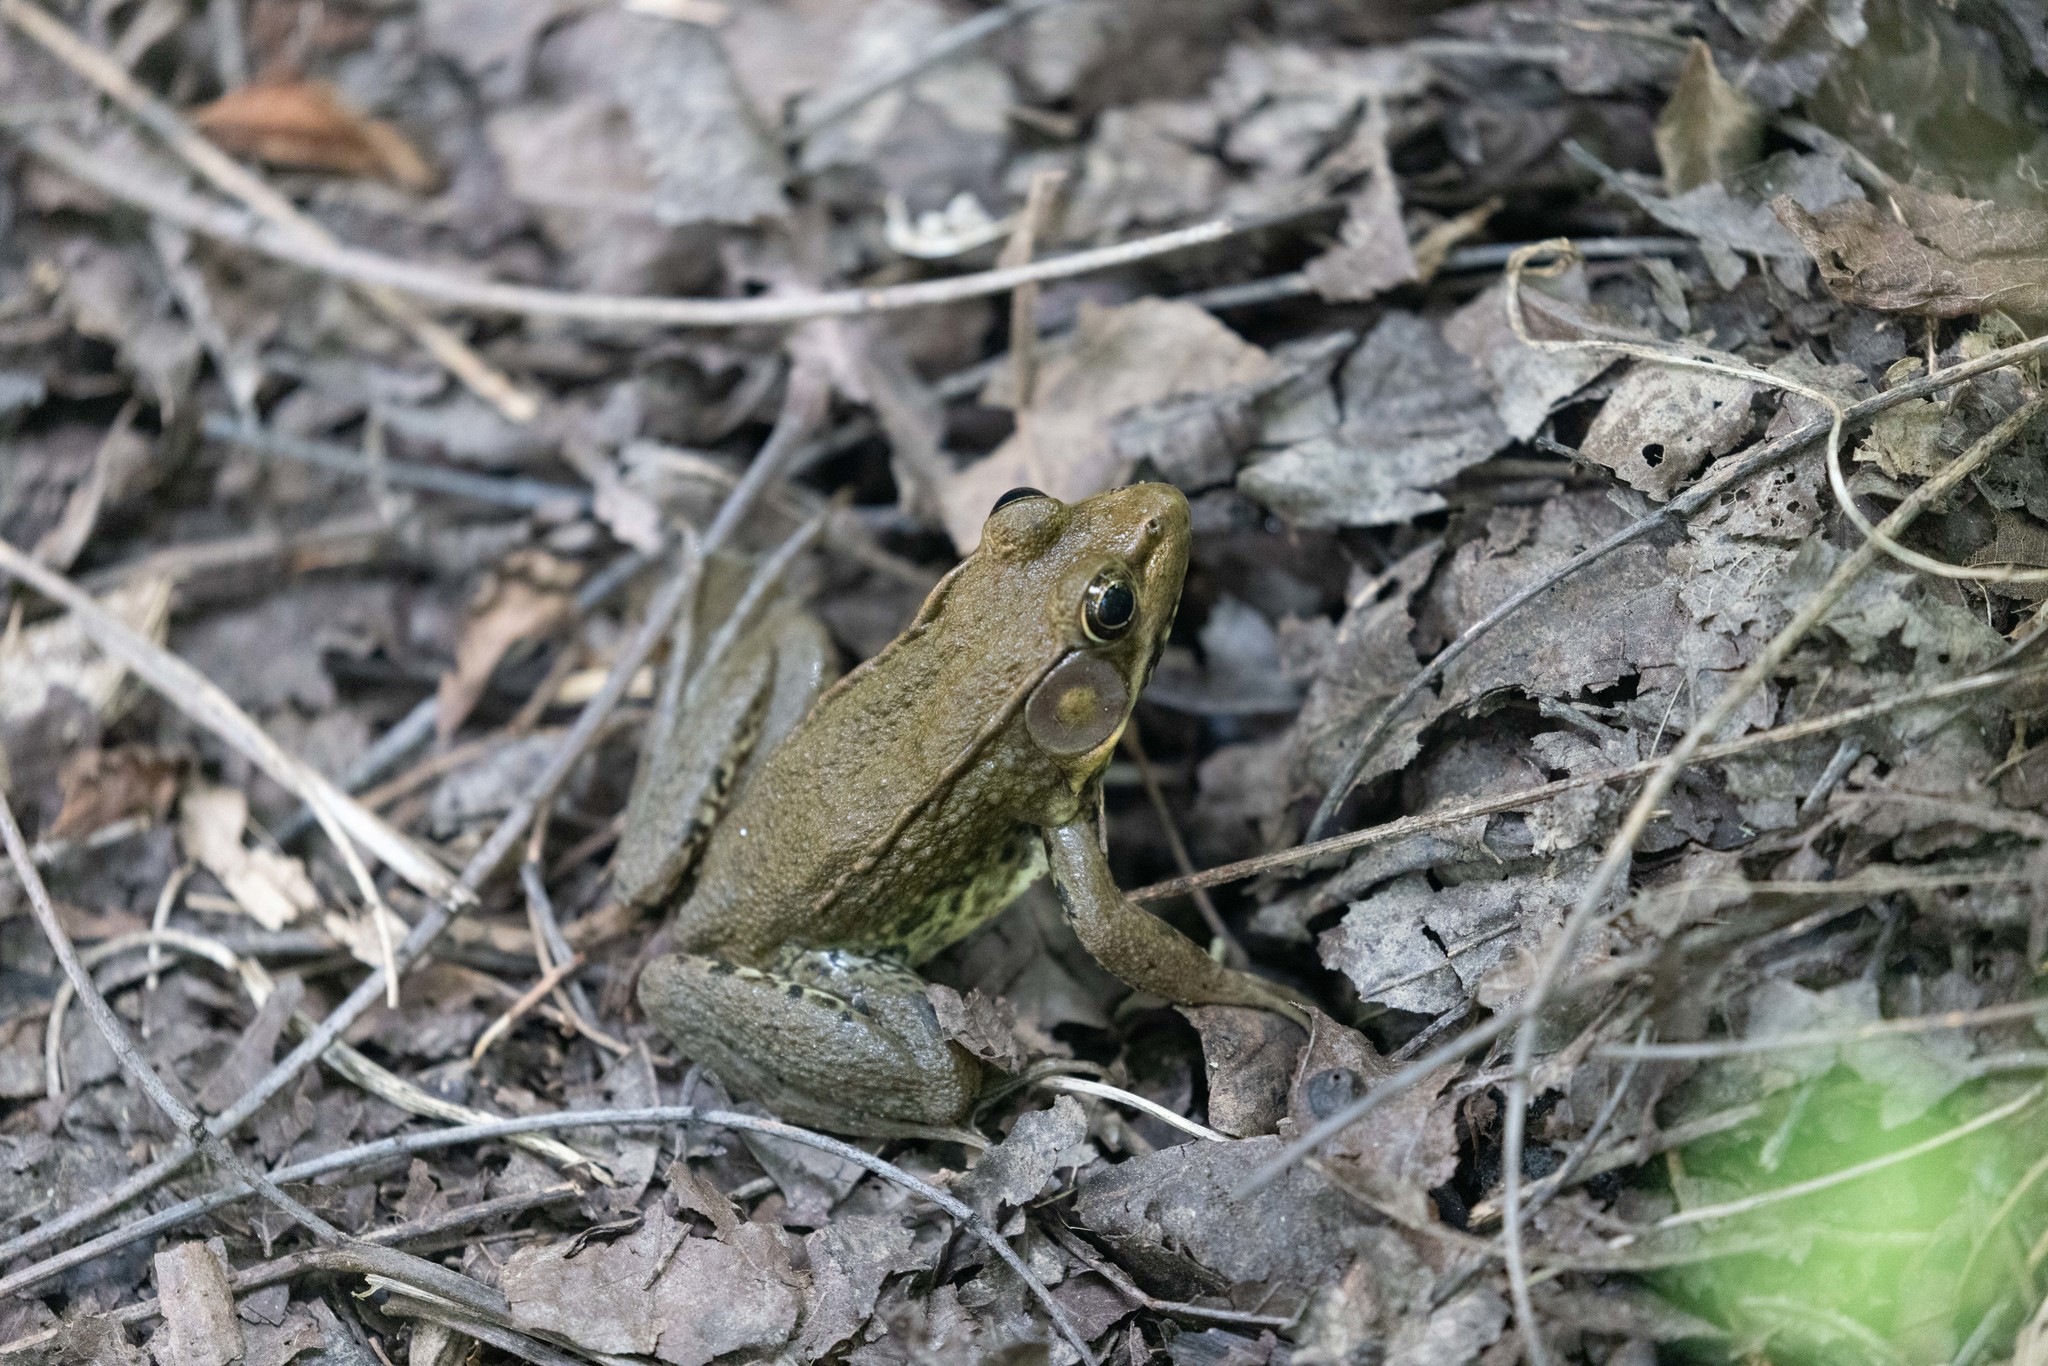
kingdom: Animalia
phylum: Chordata
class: Amphibia
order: Anura
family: Ranidae
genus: Lithobates
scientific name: Lithobates clamitans
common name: Green frog
